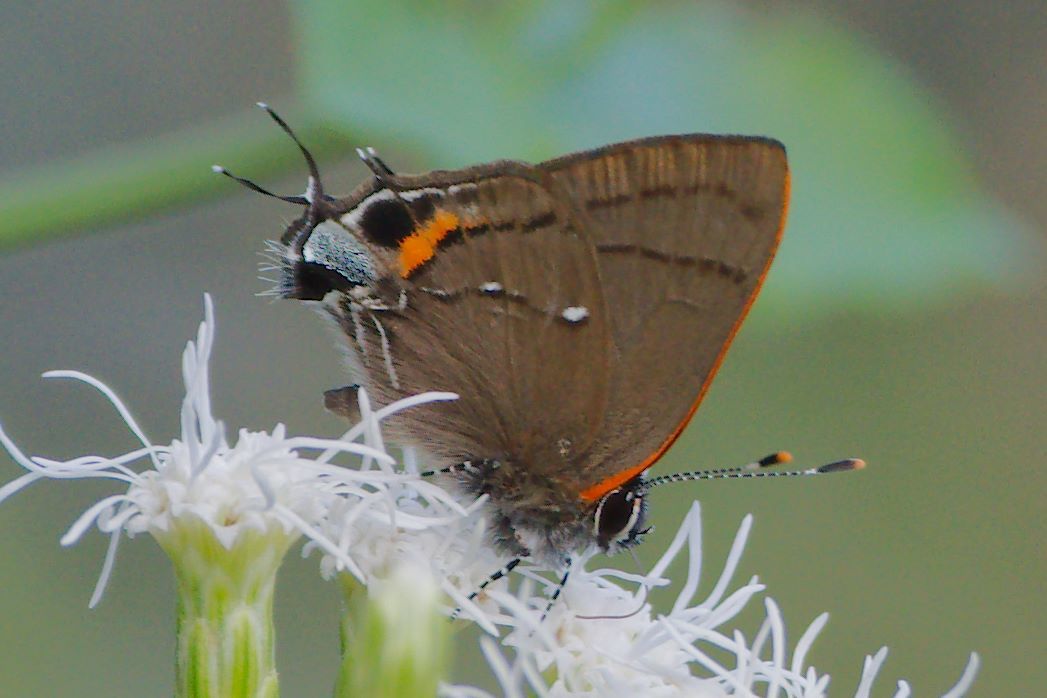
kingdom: Animalia
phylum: Arthropoda
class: Insecta
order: Lepidoptera
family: Lycaenidae
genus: Thecla
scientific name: Thecla angelia
